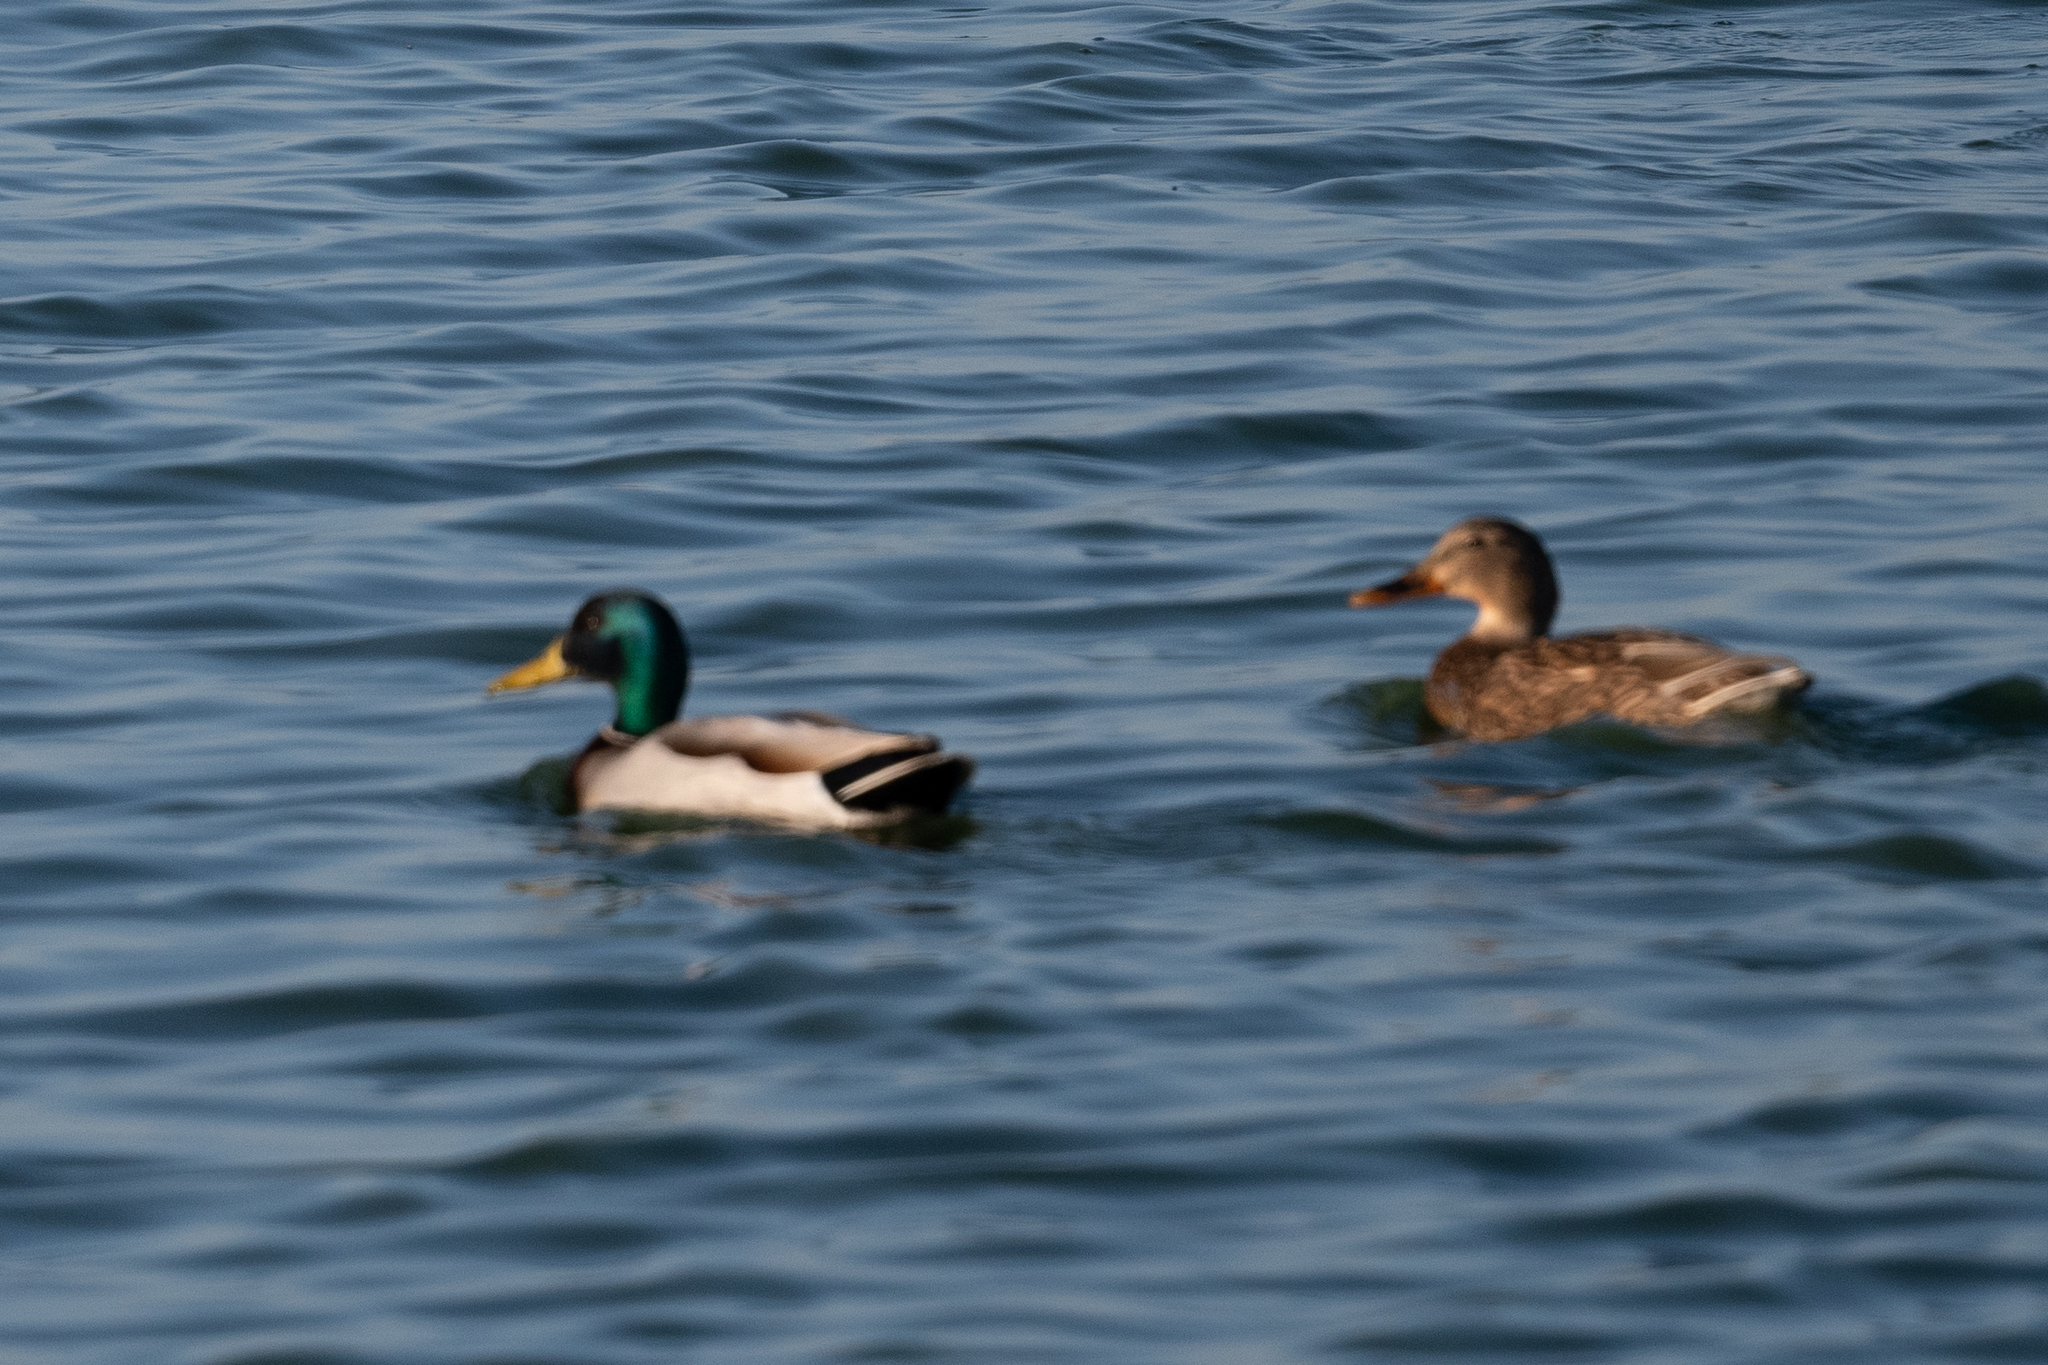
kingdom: Animalia
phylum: Chordata
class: Aves
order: Anseriformes
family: Anatidae
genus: Anas
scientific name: Anas platyrhynchos
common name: Mallard
